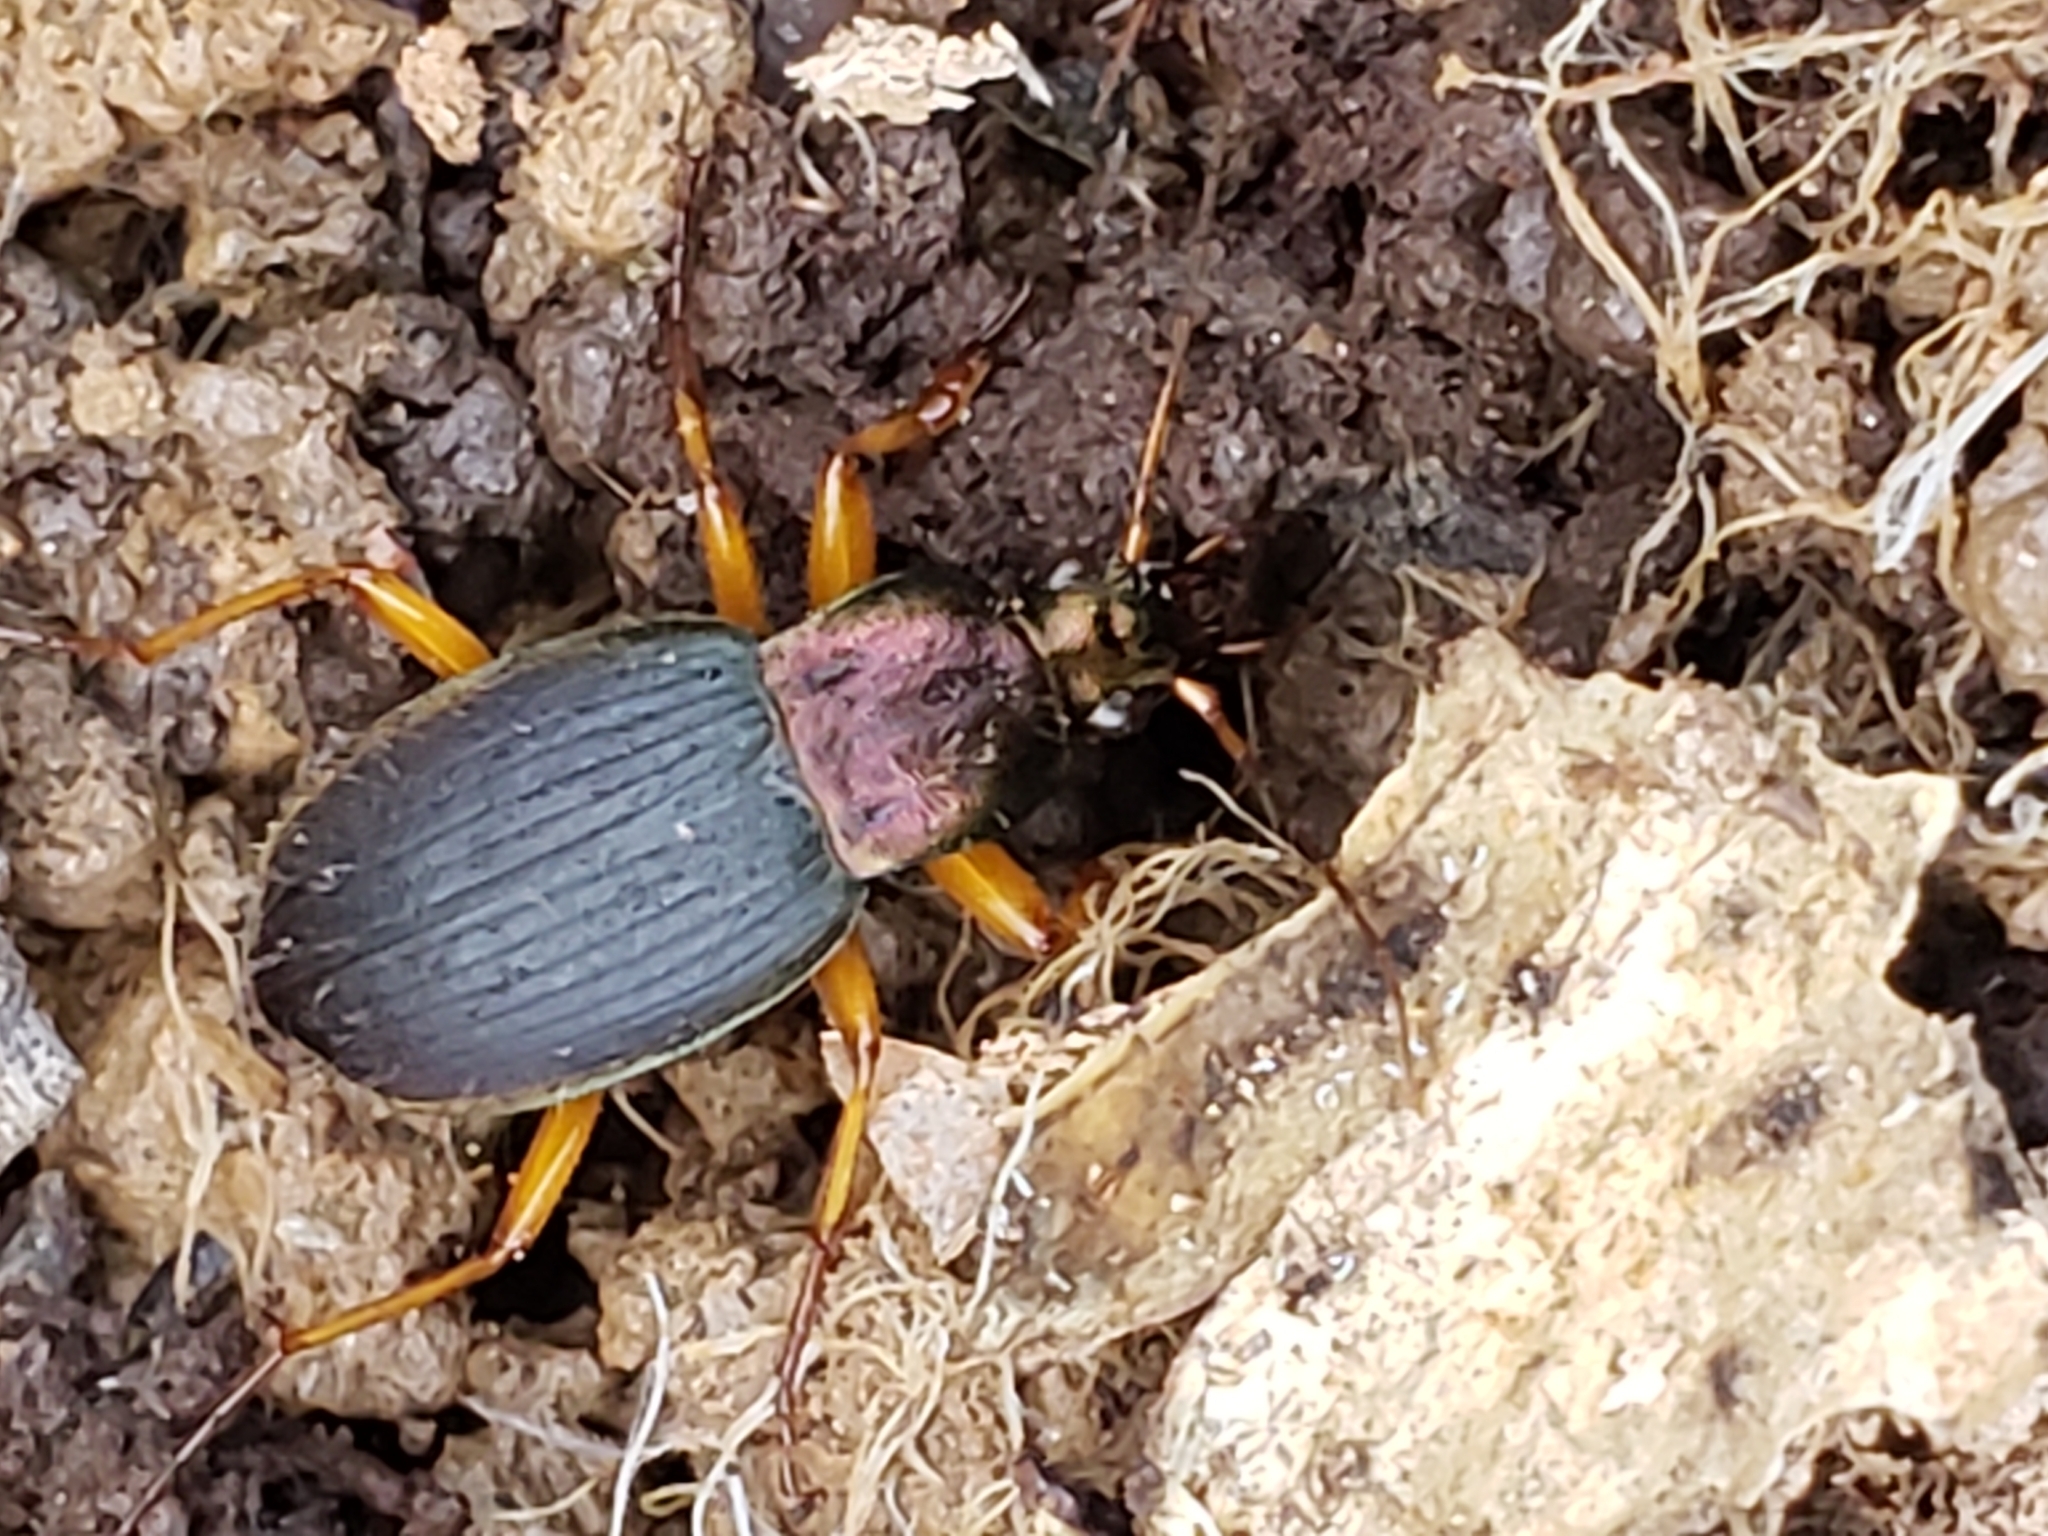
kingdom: Animalia
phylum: Arthropoda
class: Insecta
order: Coleoptera
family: Carabidae
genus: Chlaenius
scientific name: Chlaenius aestivus
